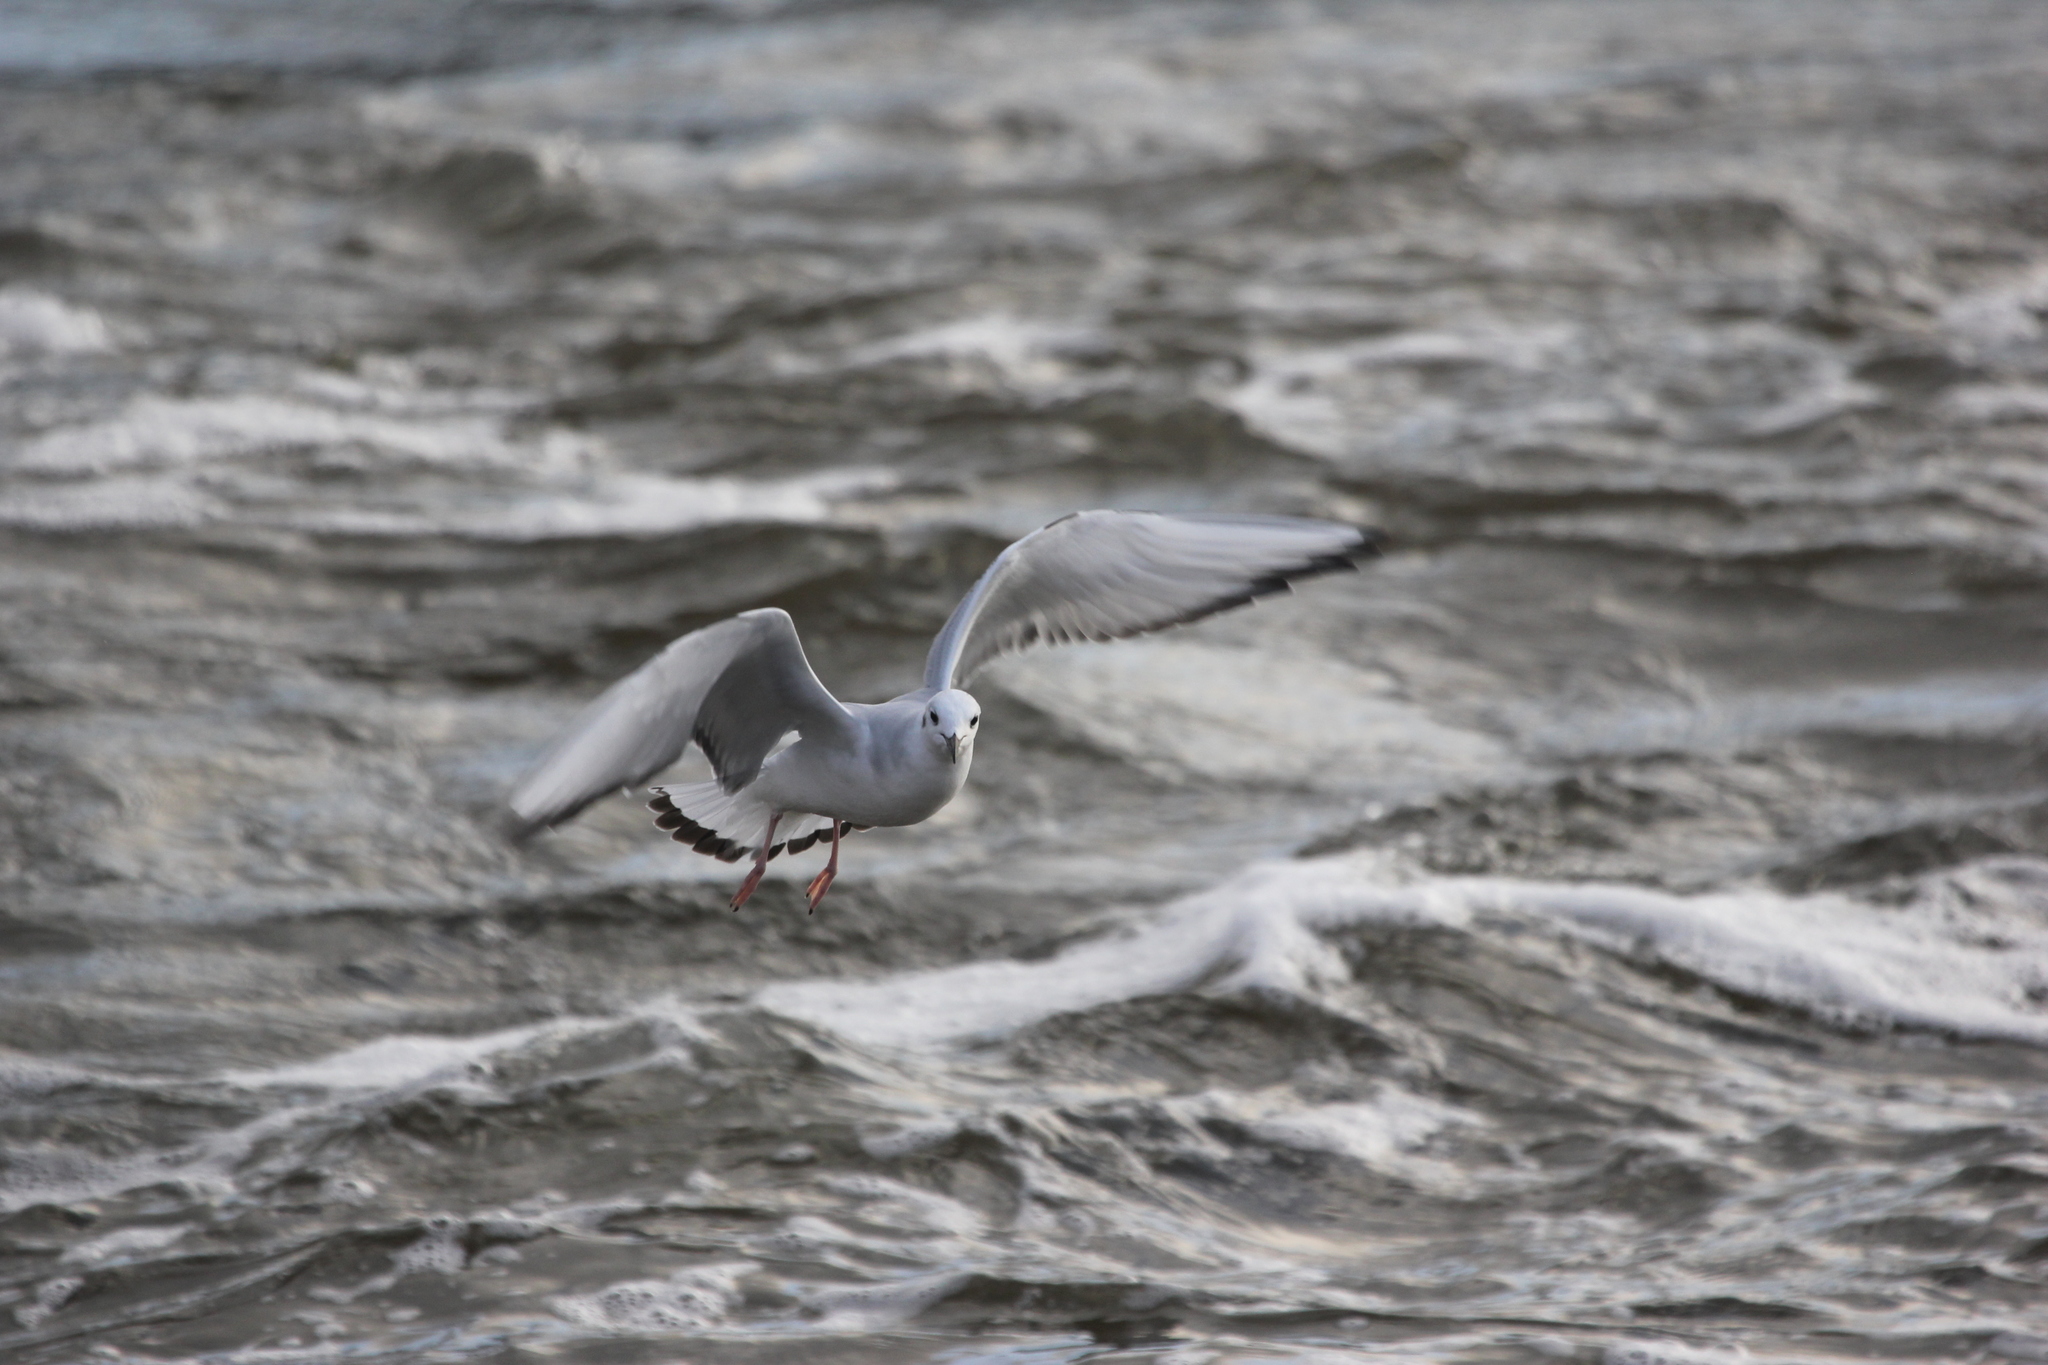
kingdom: Animalia
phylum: Chordata
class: Aves
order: Charadriiformes
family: Laridae
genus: Chroicocephalus
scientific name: Chroicocephalus philadelphia
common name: Bonaparte's gull
